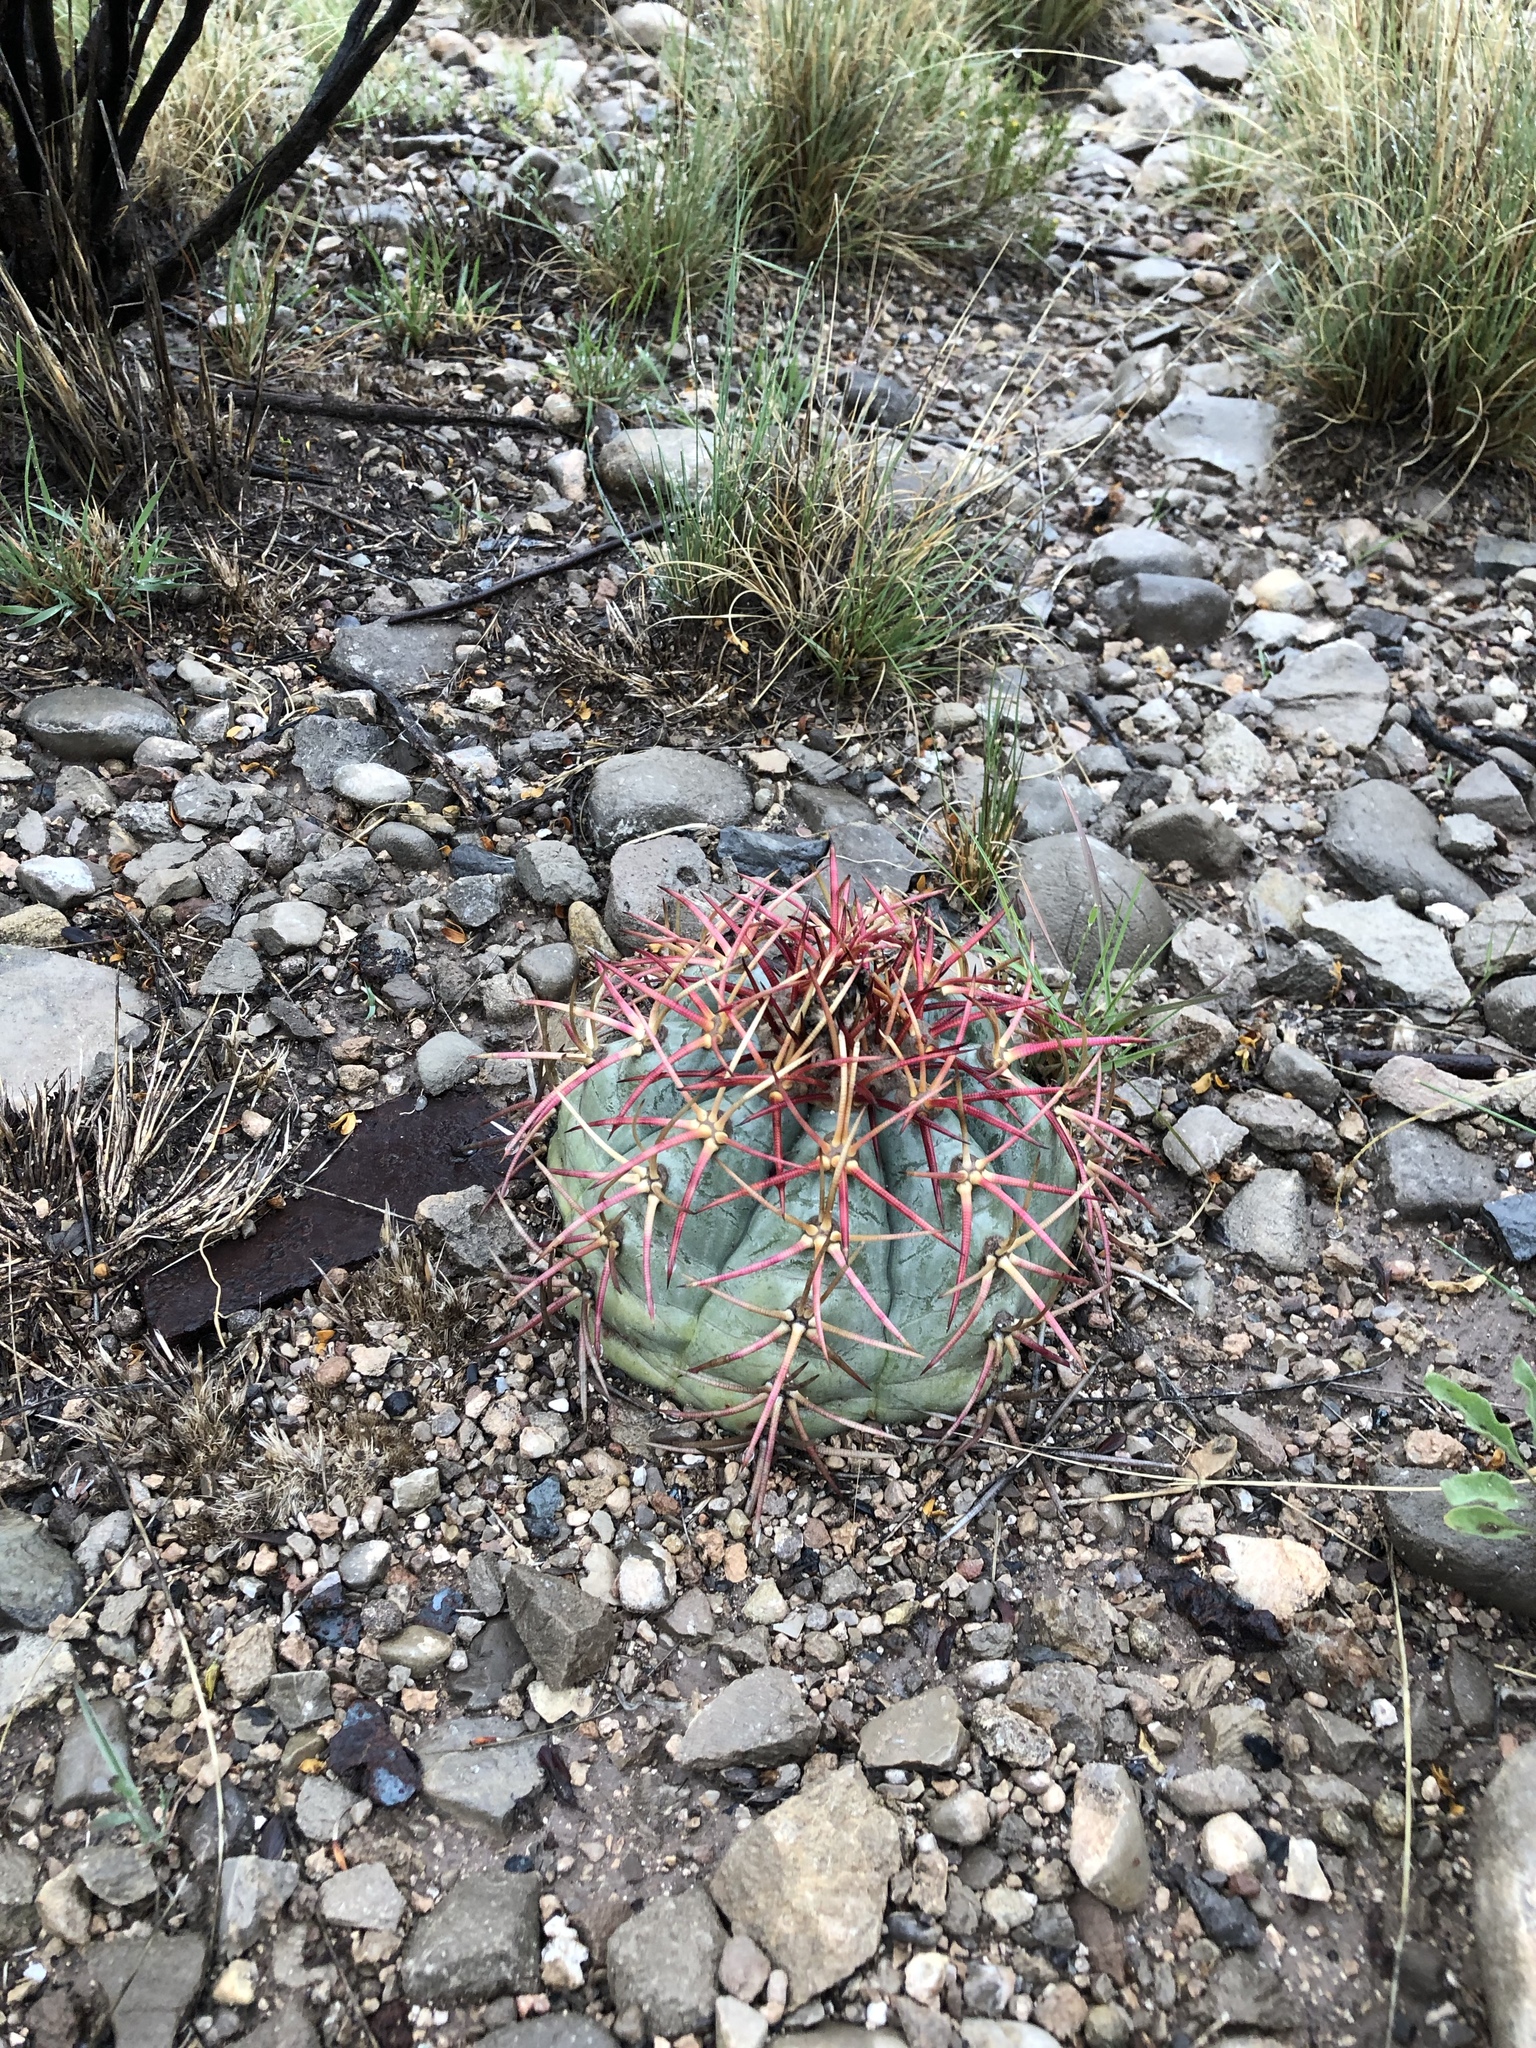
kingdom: Plantae
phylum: Tracheophyta
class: Magnoliopsida
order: Caryophyllales
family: Cactaceae
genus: Echinocactus
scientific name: Echinocactus horizonthalonius
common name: Devilshead
